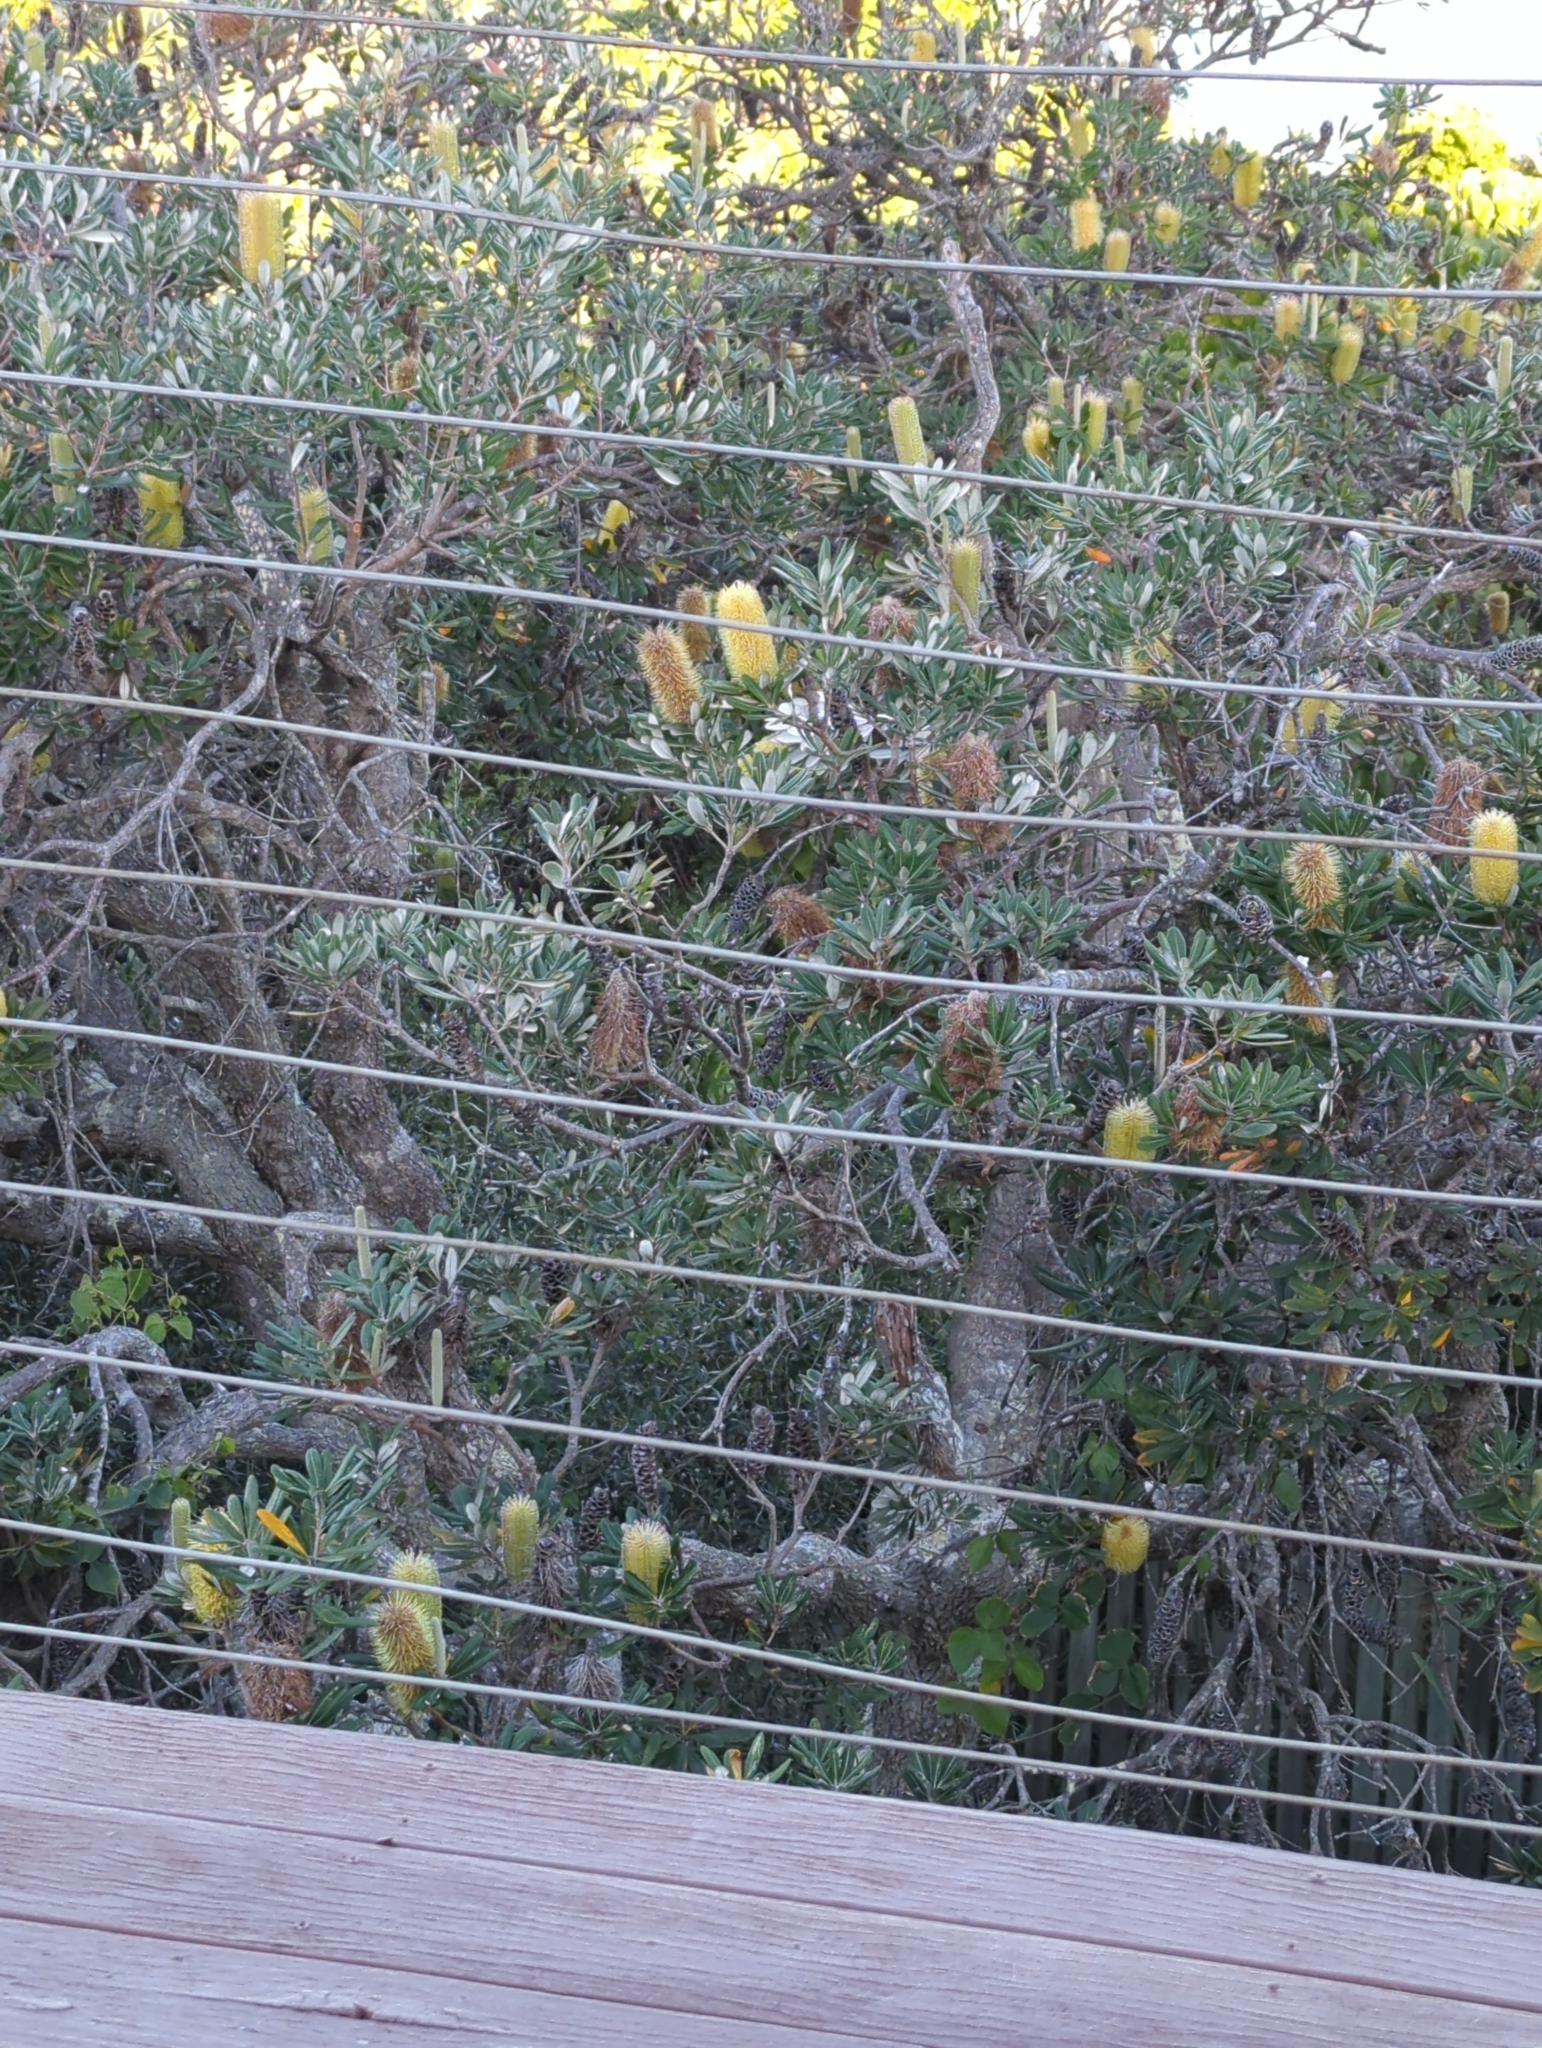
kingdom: Plantae
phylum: Tracheophyta
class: Magnoliopsida
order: Proteales
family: Proteaceae
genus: Banksia
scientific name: Banksia integrifolia
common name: White-honeysuckle
